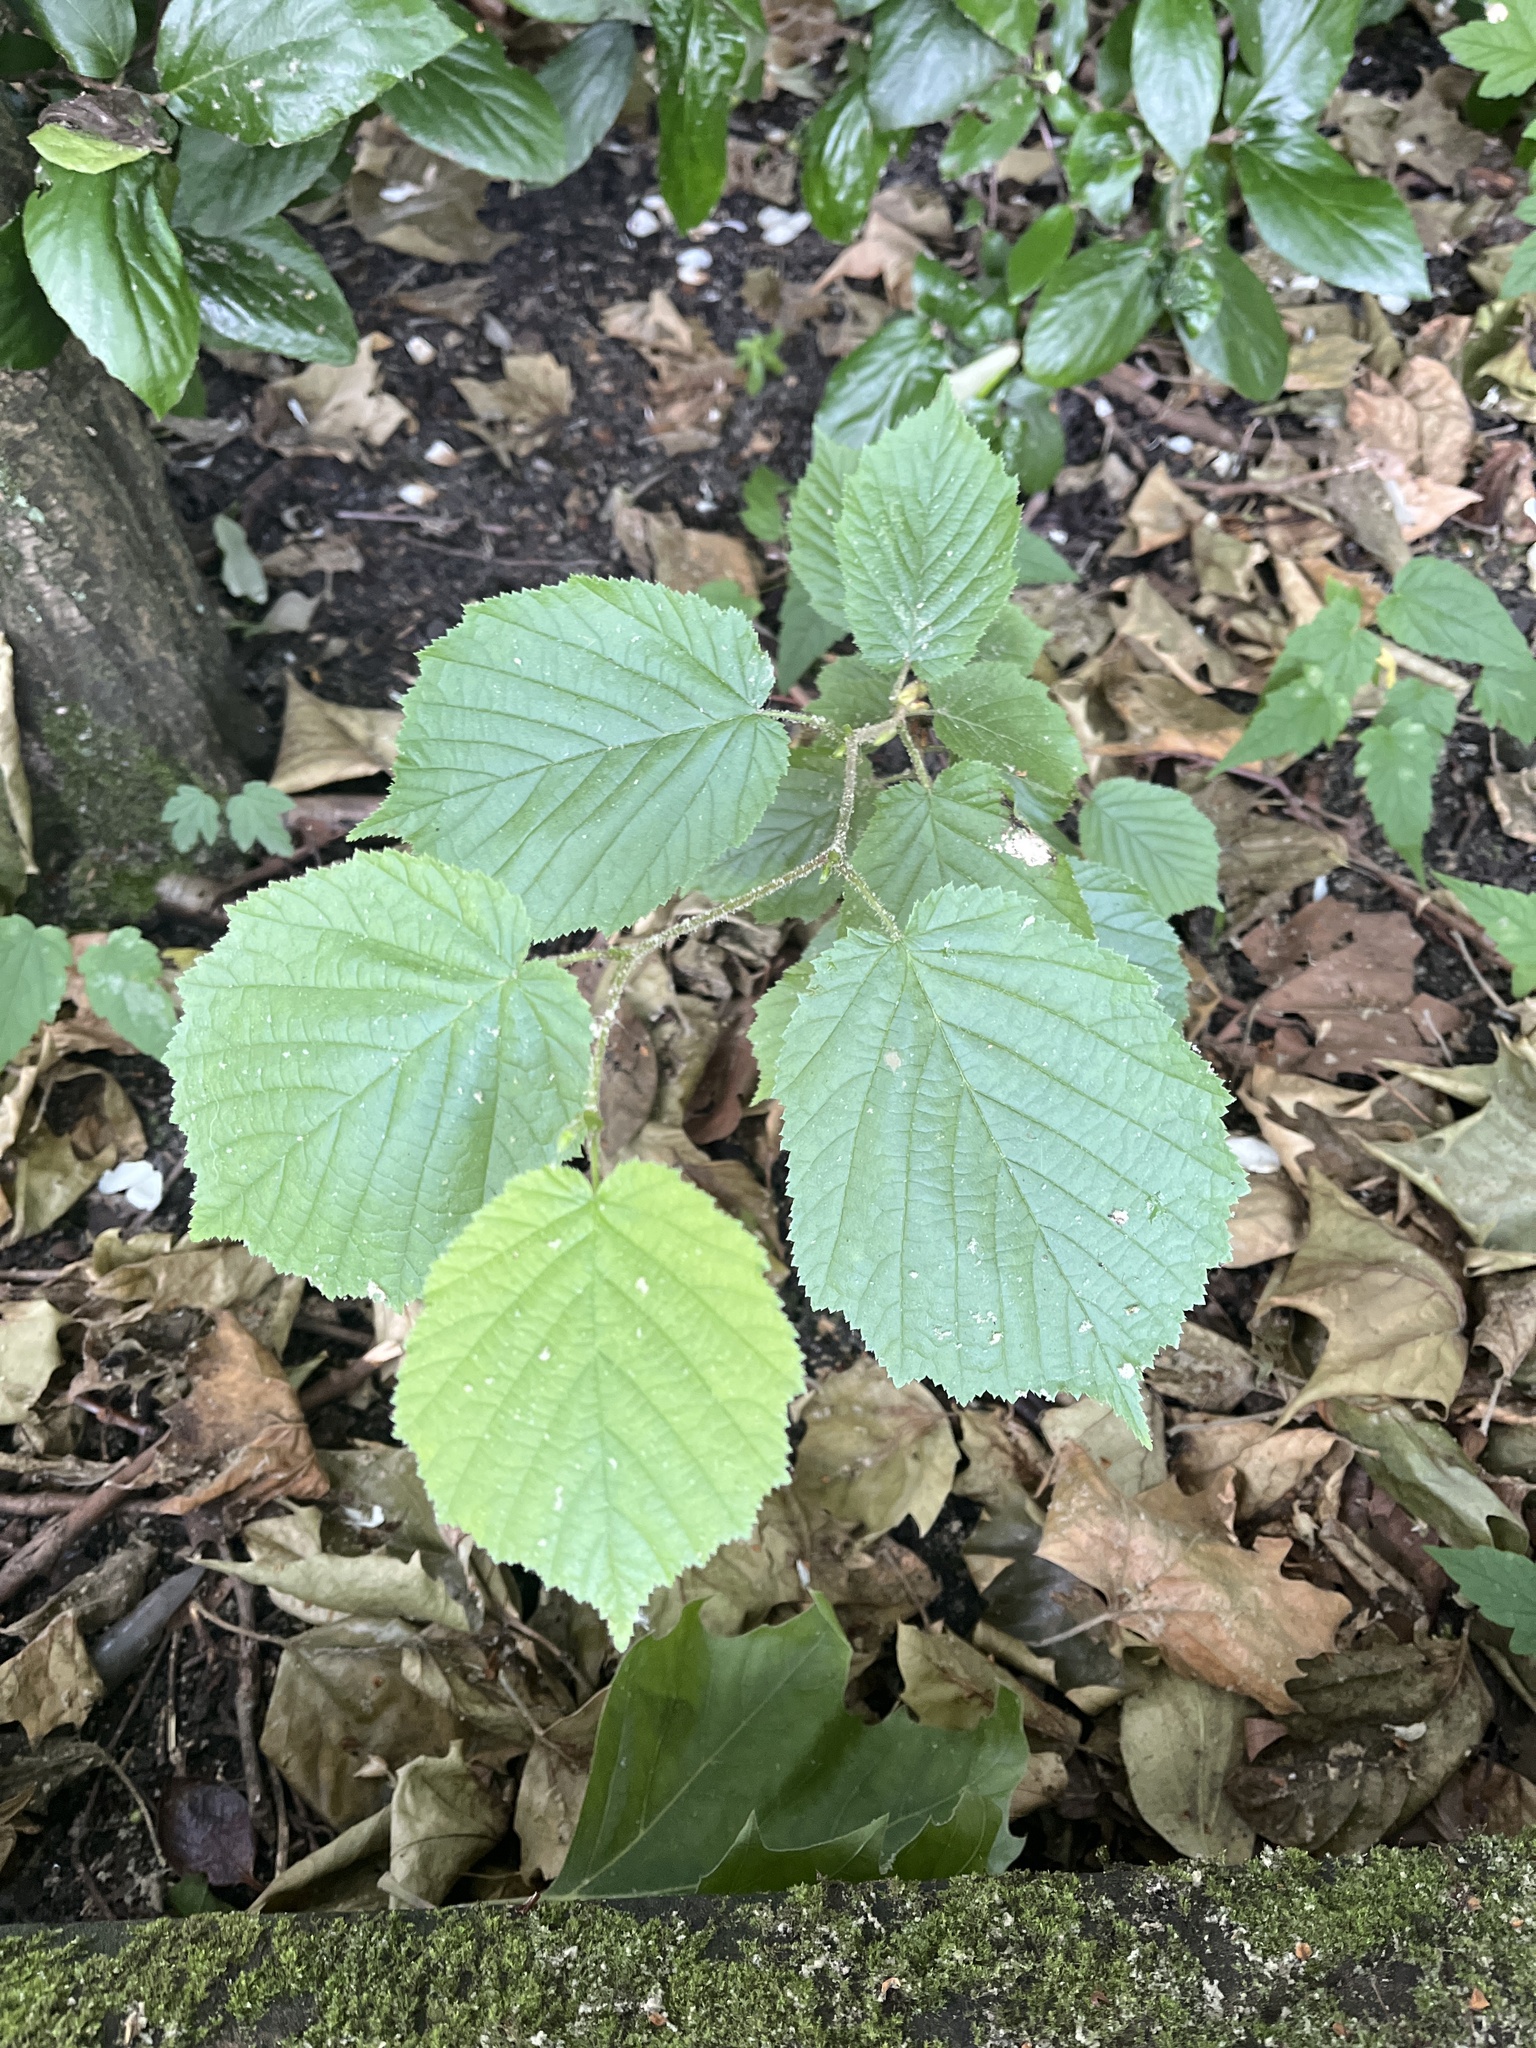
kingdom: Plantae
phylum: Tracheophyta
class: Magnoliopsida
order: Fagales
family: Betulaceae
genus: Corylus
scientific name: Corylus avellana
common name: European hazel
